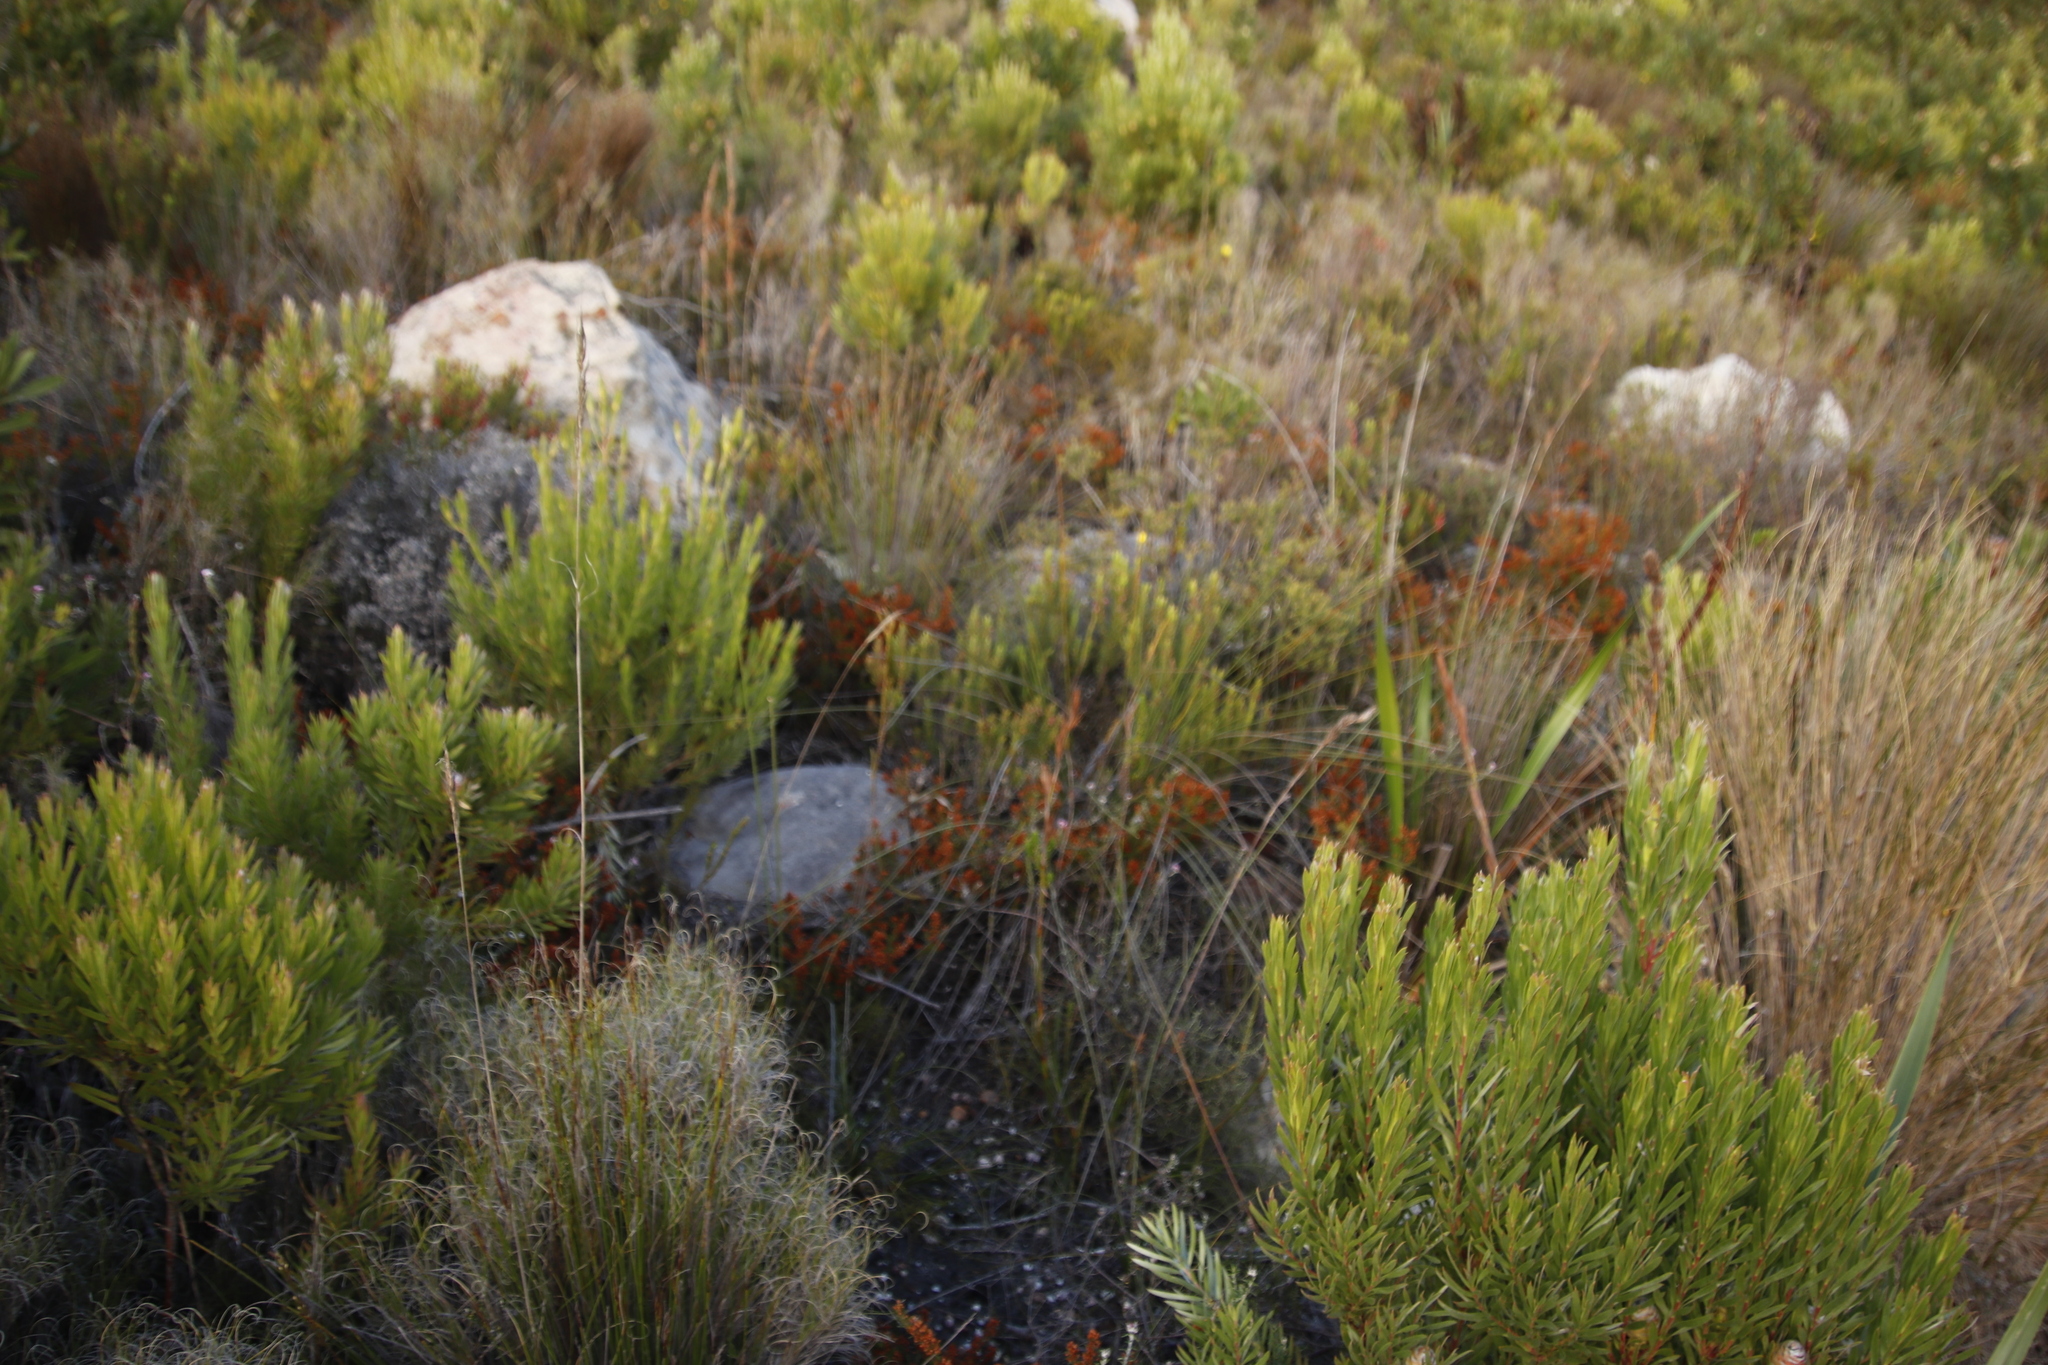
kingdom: Plantae
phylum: Tracheophyta
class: Magnoliopsida
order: Ericales
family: Ericaceae
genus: Erica
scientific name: Erica plukenetii
